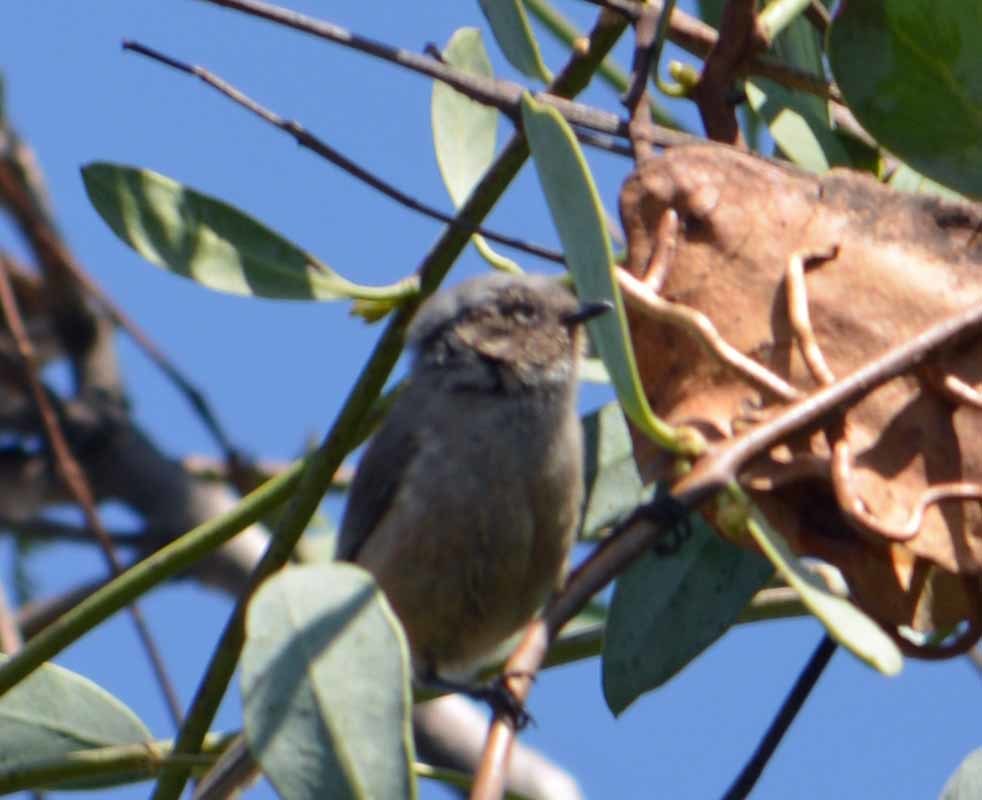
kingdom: Animalia
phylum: Chordata
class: Aves
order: Passeriformes
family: Aegithalidae
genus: Psaltriparus
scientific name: Psaltriparus minimus
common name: American bushtit
